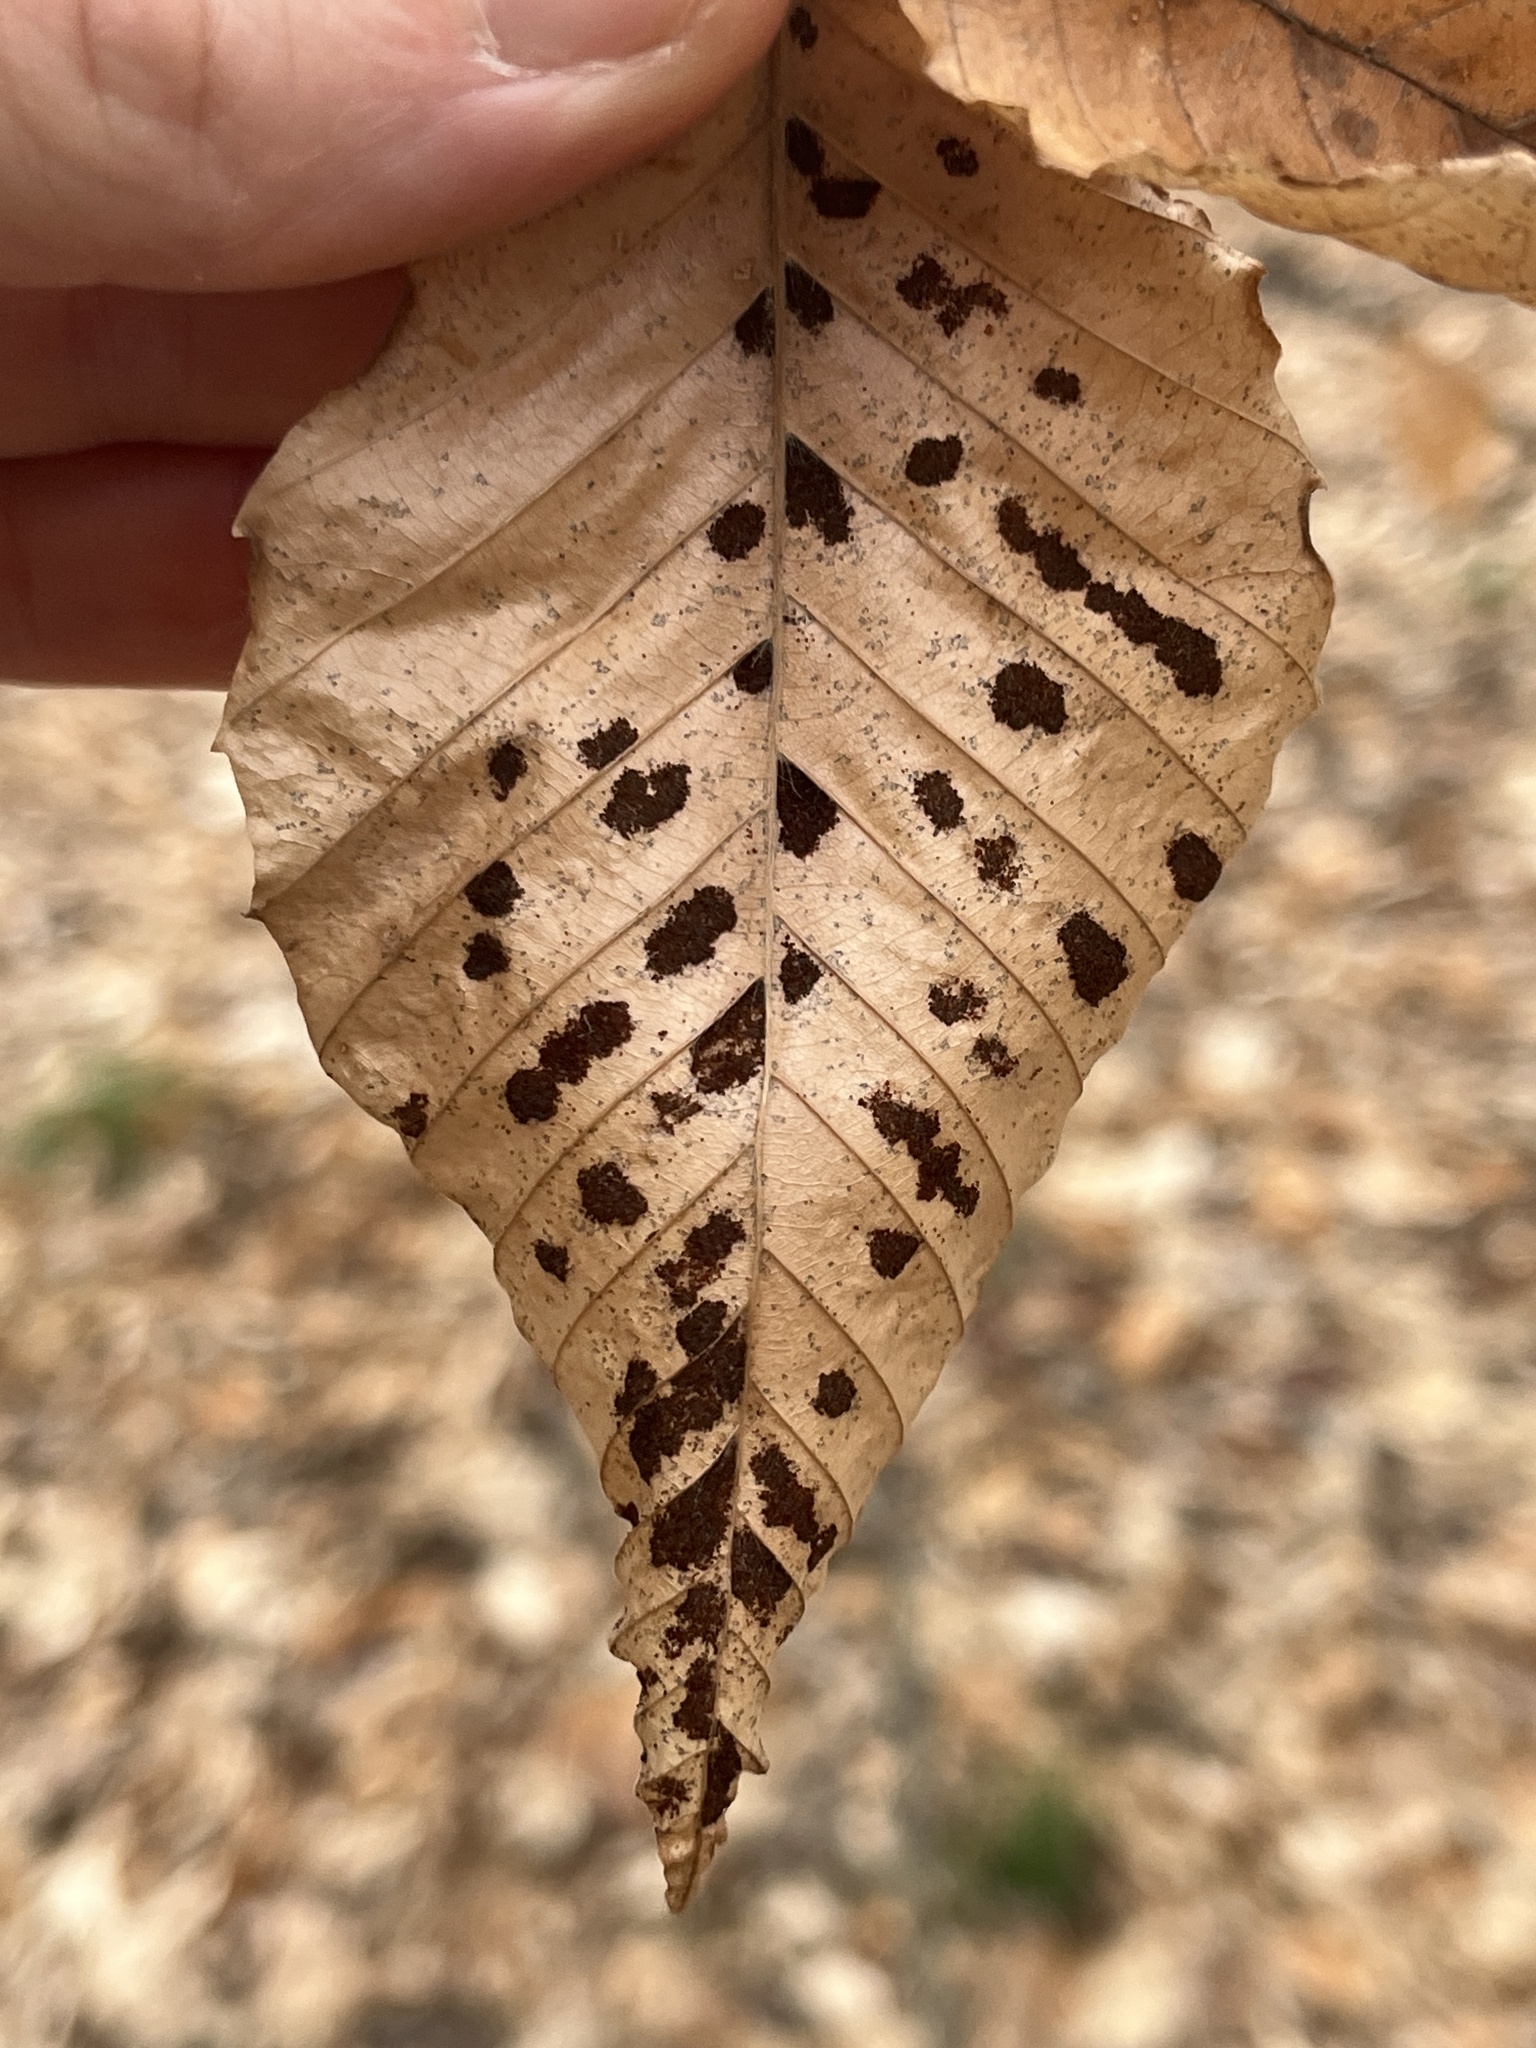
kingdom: Animalia
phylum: Arthropoda
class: Arachnida
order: Trombidiformes
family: Eriophyidae
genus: Acalitus
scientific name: Acalitus
